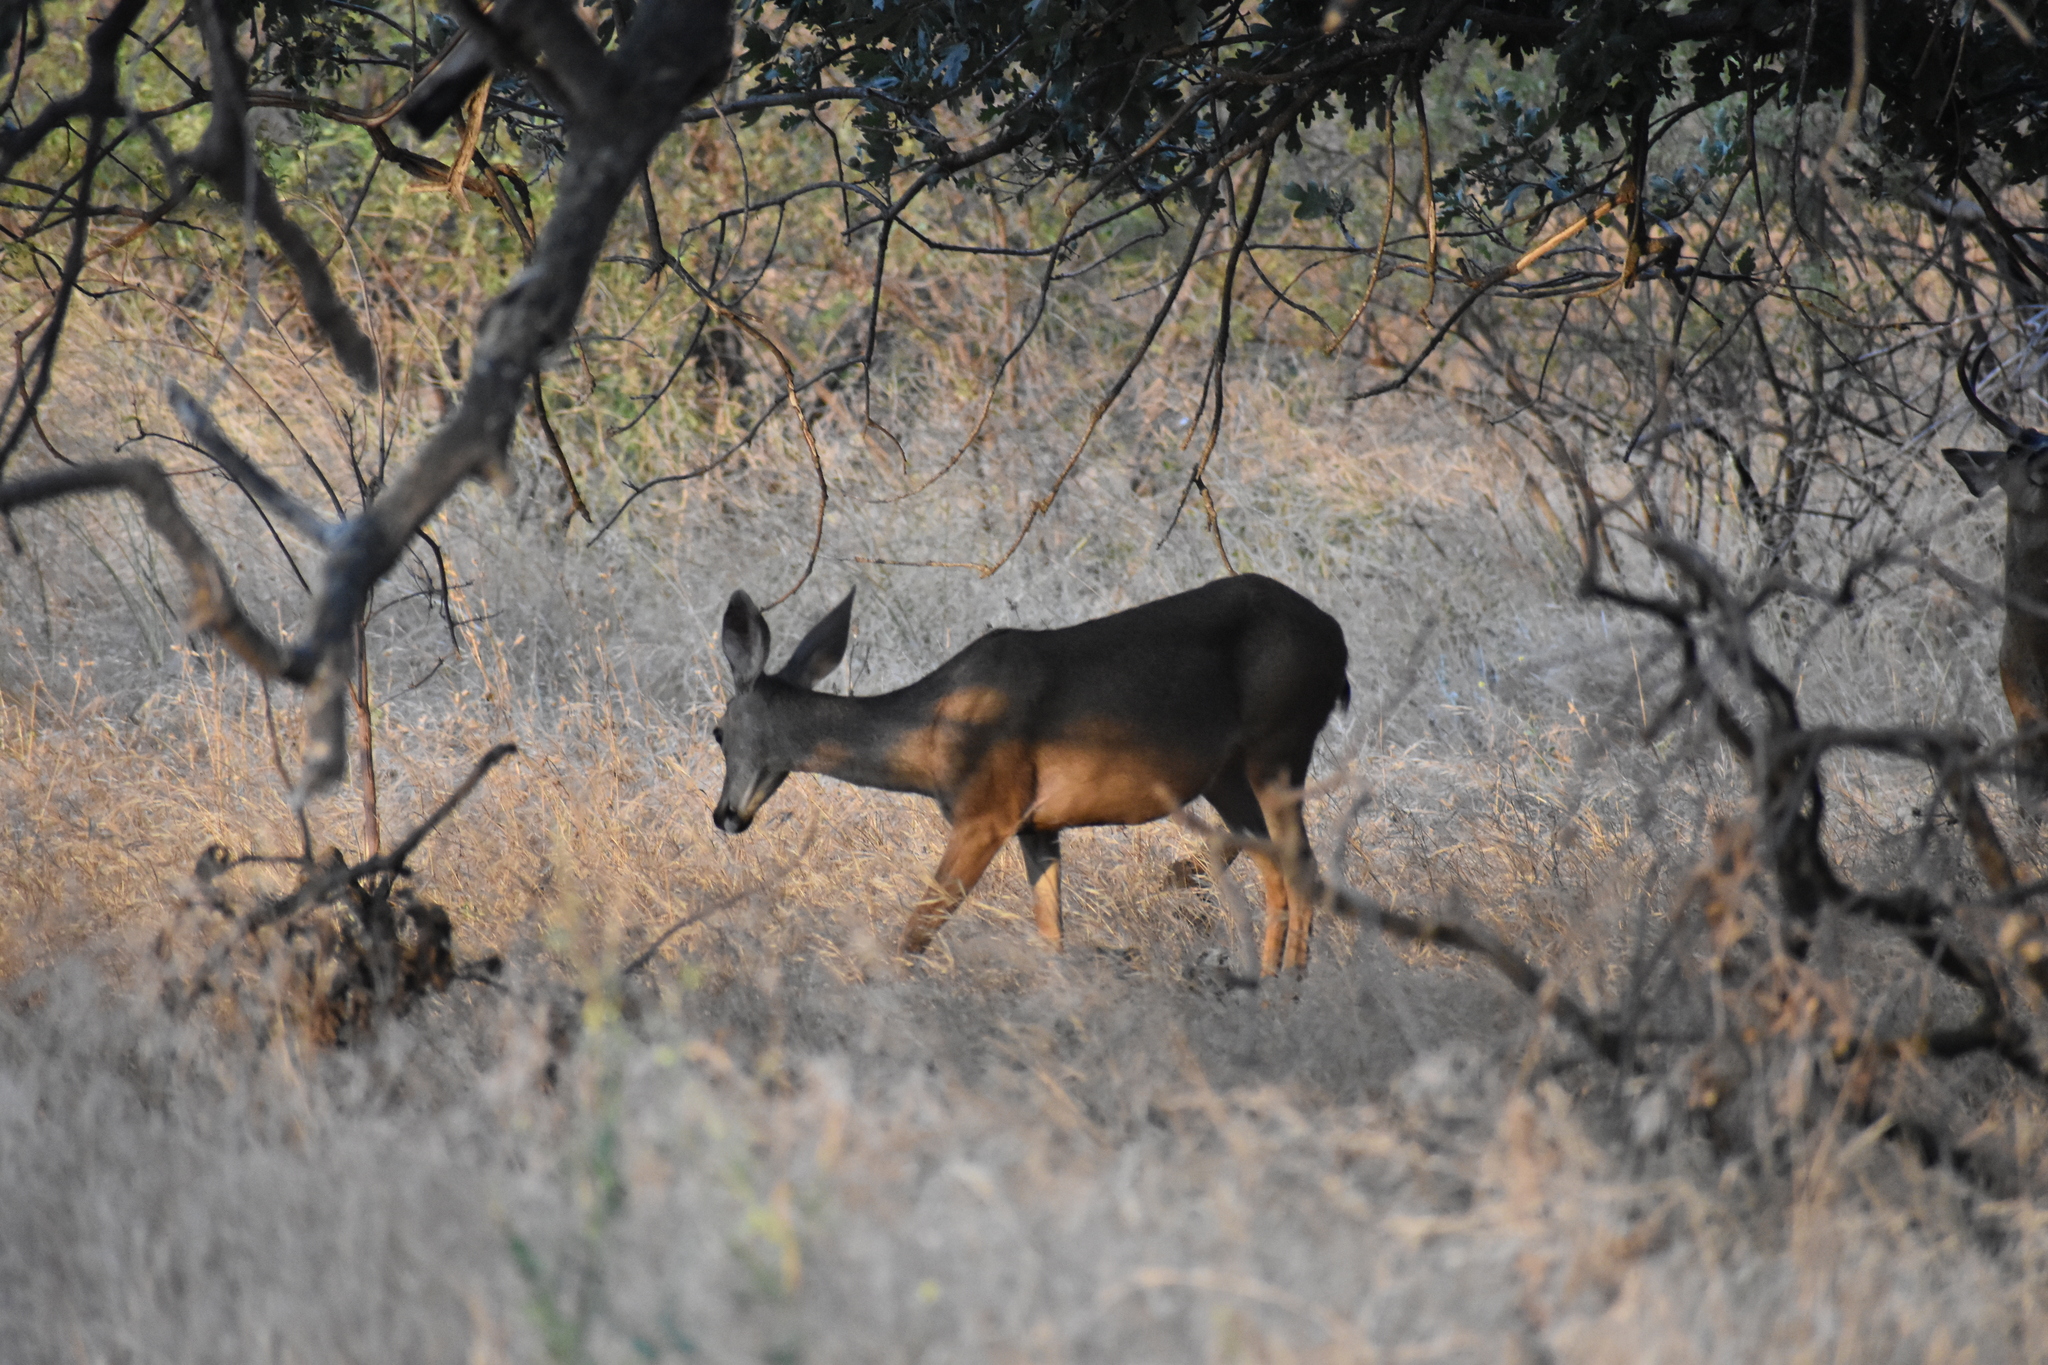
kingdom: Animalia
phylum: Chordata
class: Mammalia
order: Artiodactyla
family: Cervidae
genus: Odocoileus
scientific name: Odocoileus hemionus
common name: Mule deer
